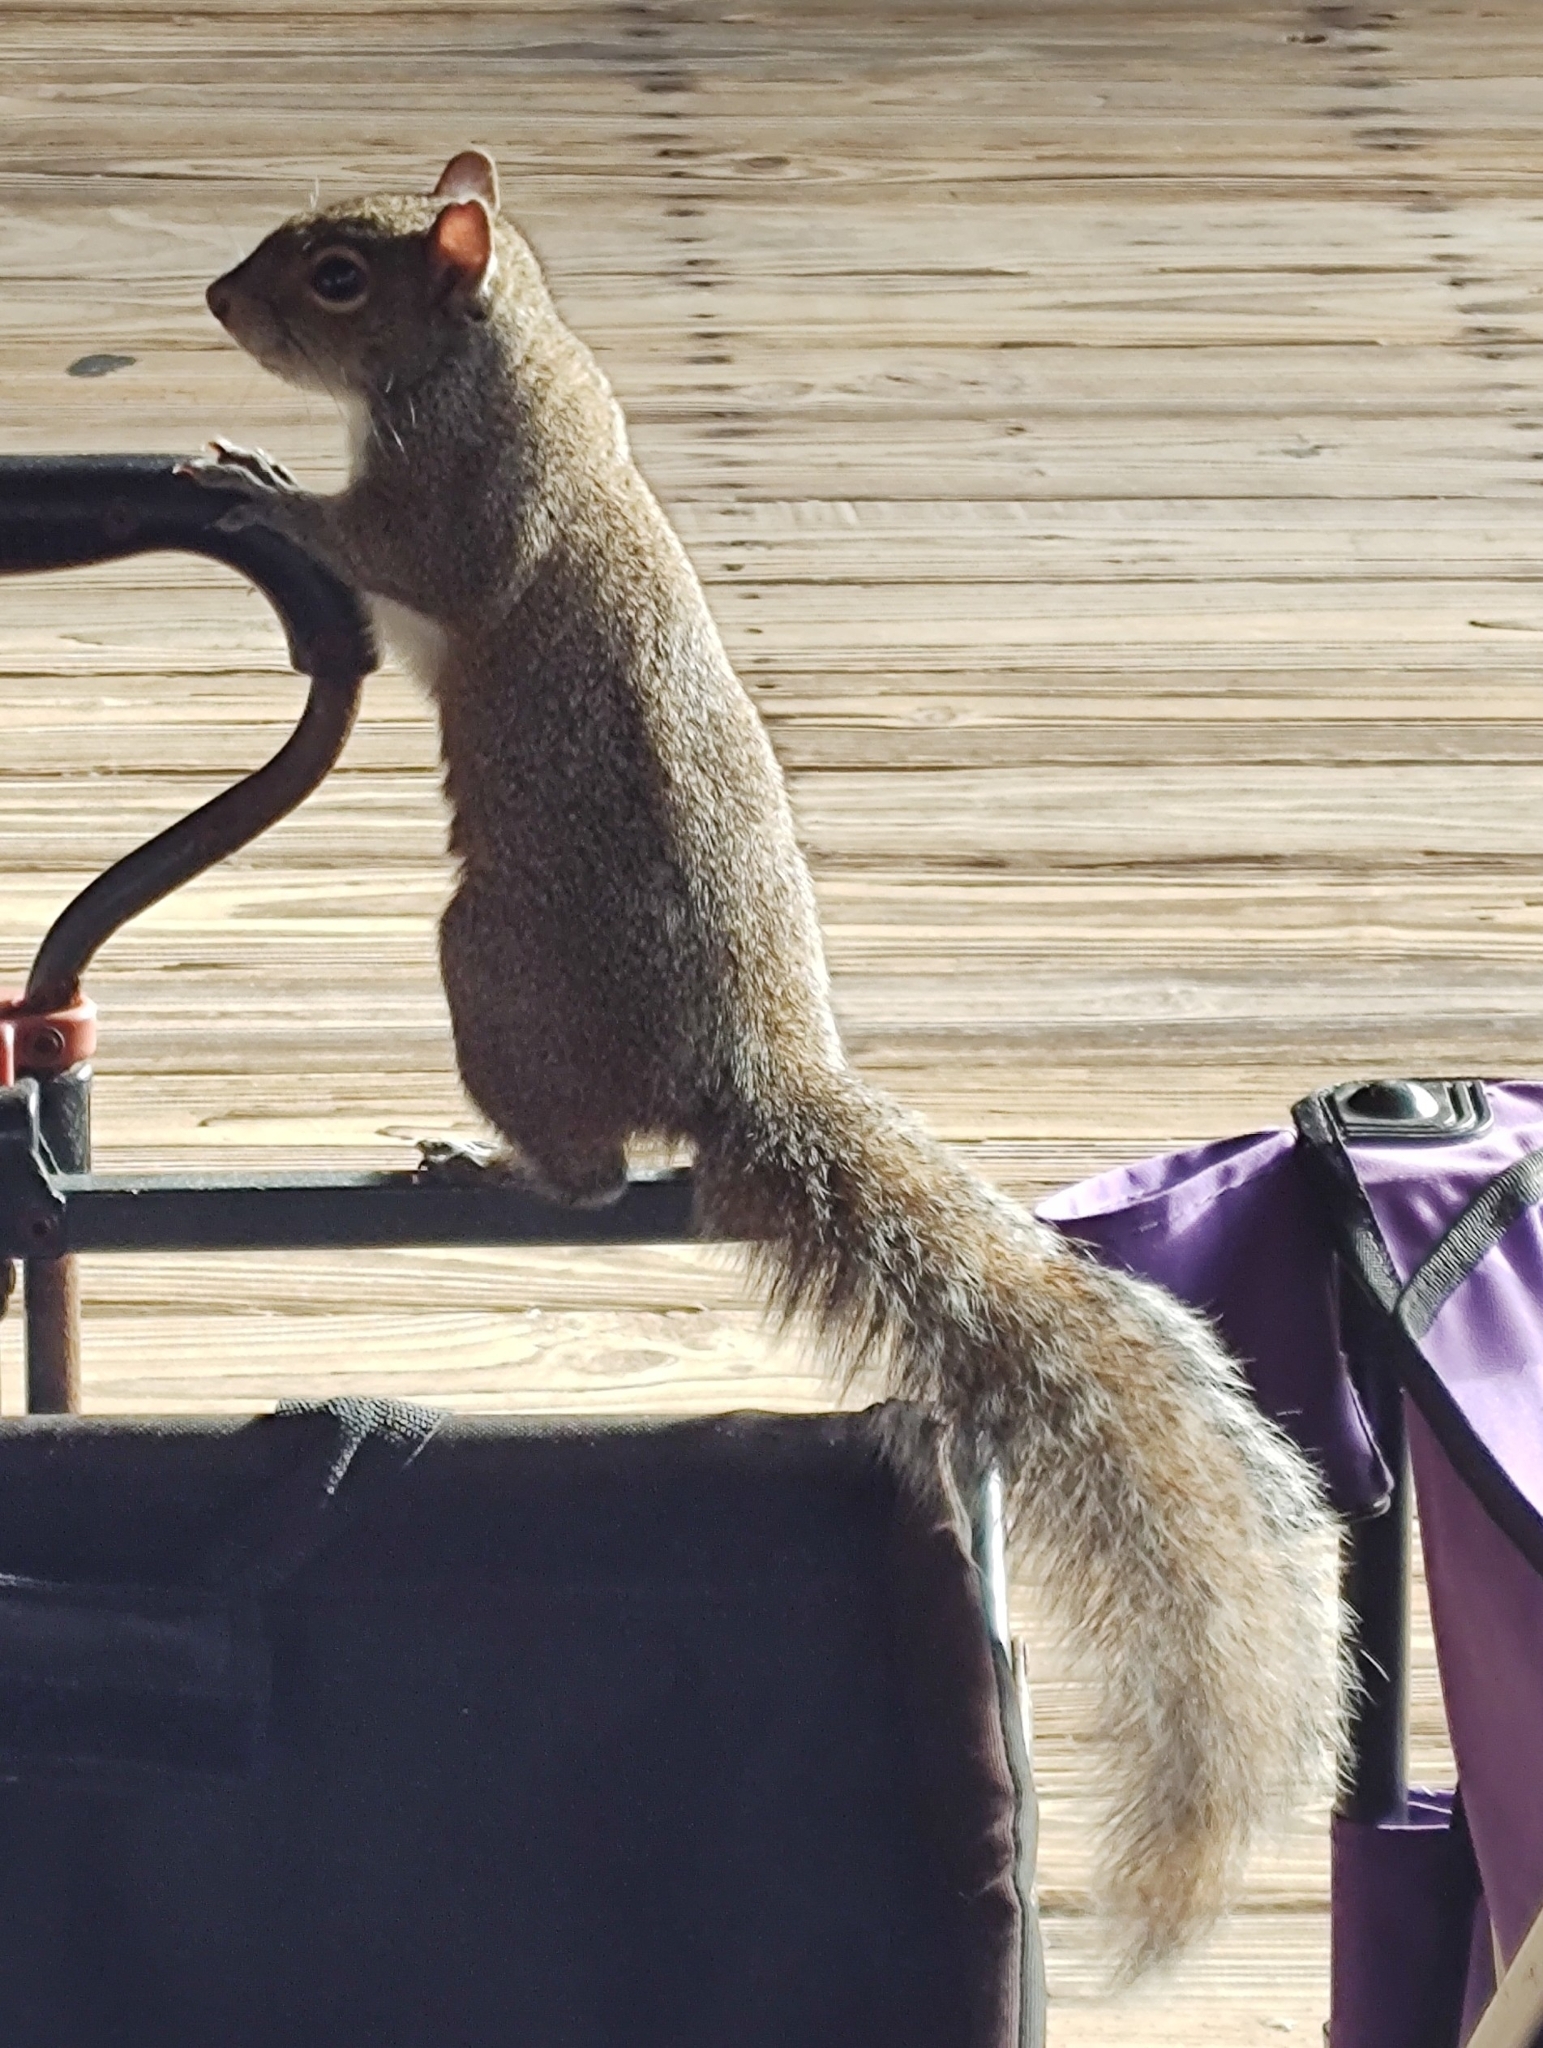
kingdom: Animalia
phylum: Chordata
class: Mammalia
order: Rodentia
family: Sciuridae
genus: Sciurus
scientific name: Sciurus carolinensis
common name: Eastern gray squirrel
